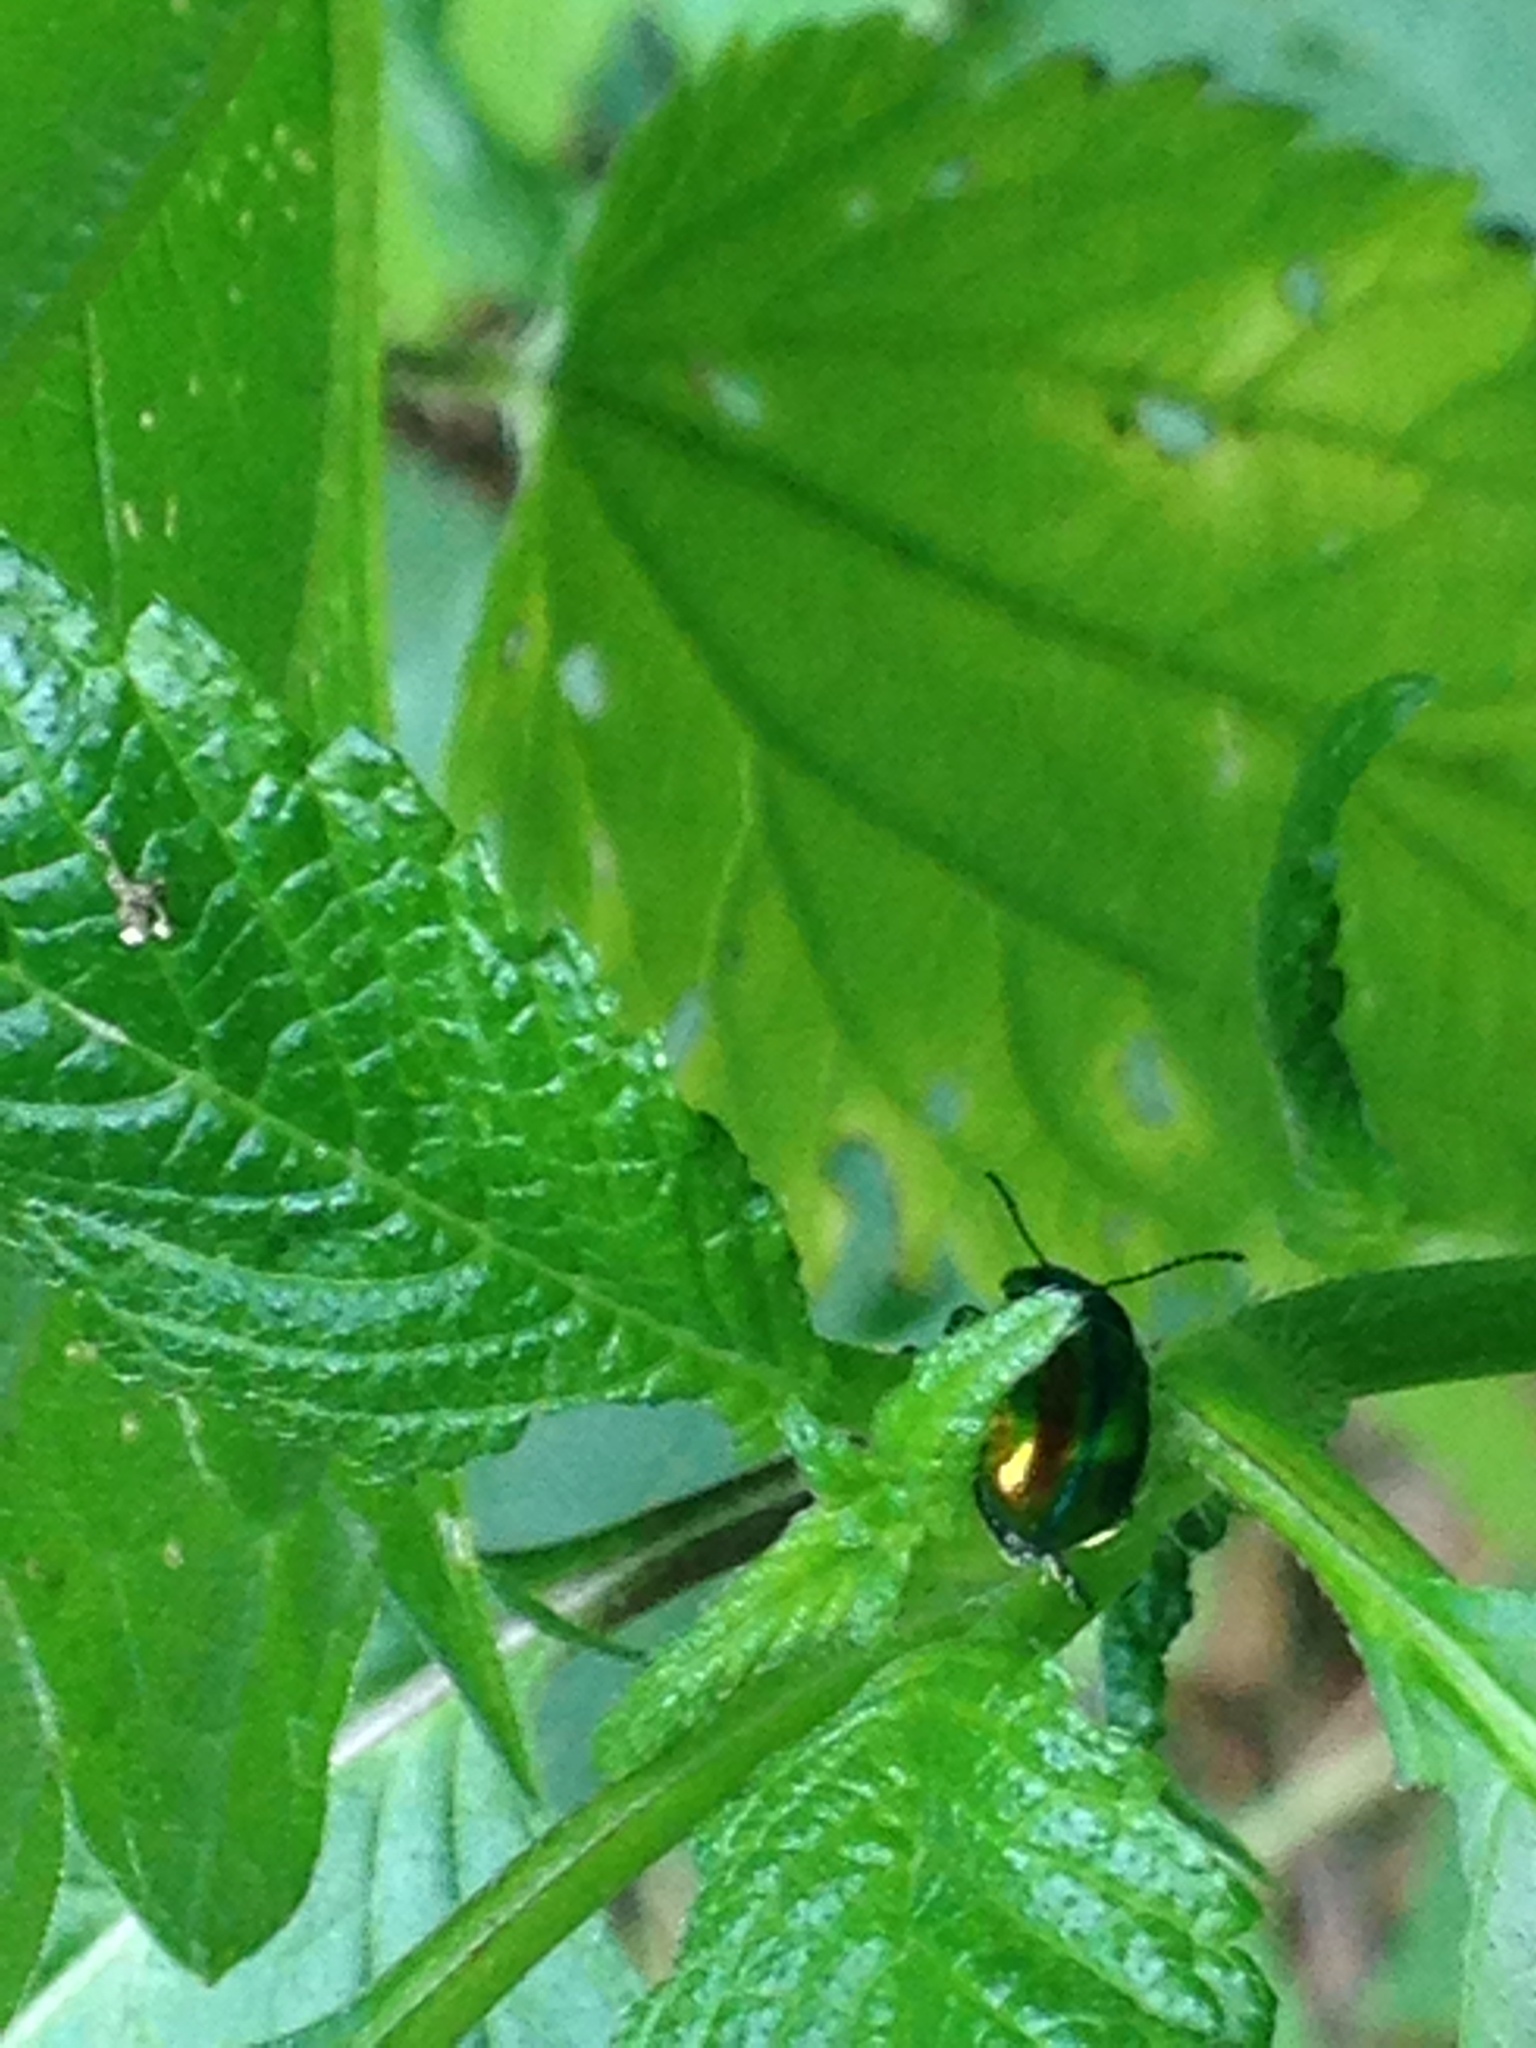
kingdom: Animalia
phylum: Arthropoda
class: Insecta
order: Coleoptera
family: Chrysomelidae
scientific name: Chrysomelidae
